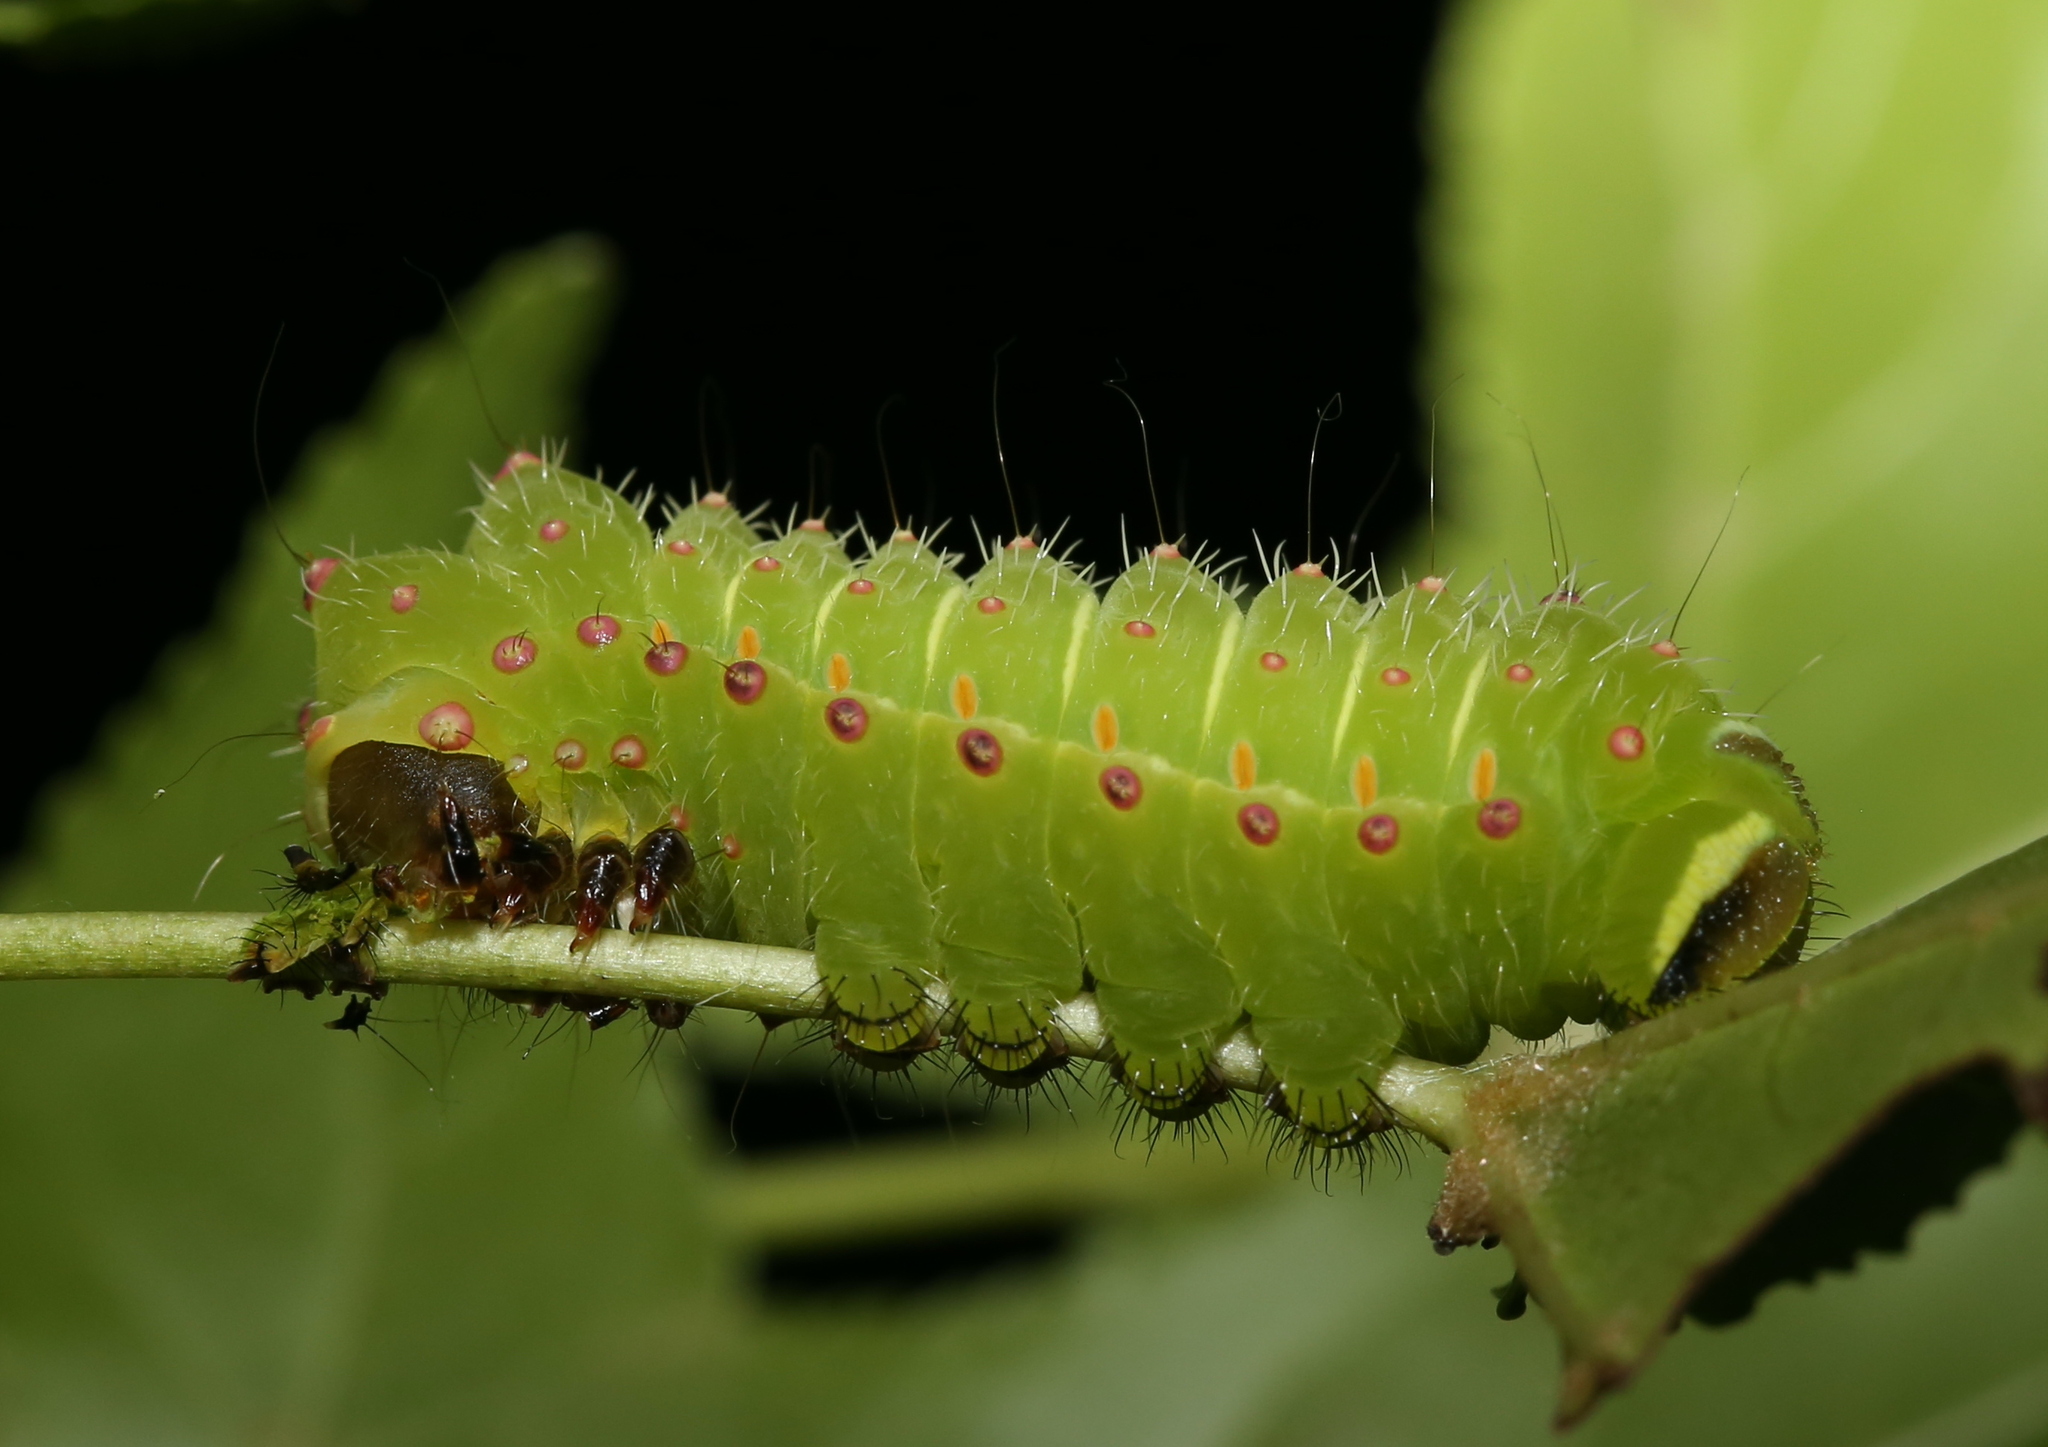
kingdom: Animalia
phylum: Arthropoda
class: Insecta
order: Lepidoptera
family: Saturniidae
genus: Actias
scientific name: Actias luna
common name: Luna moth
